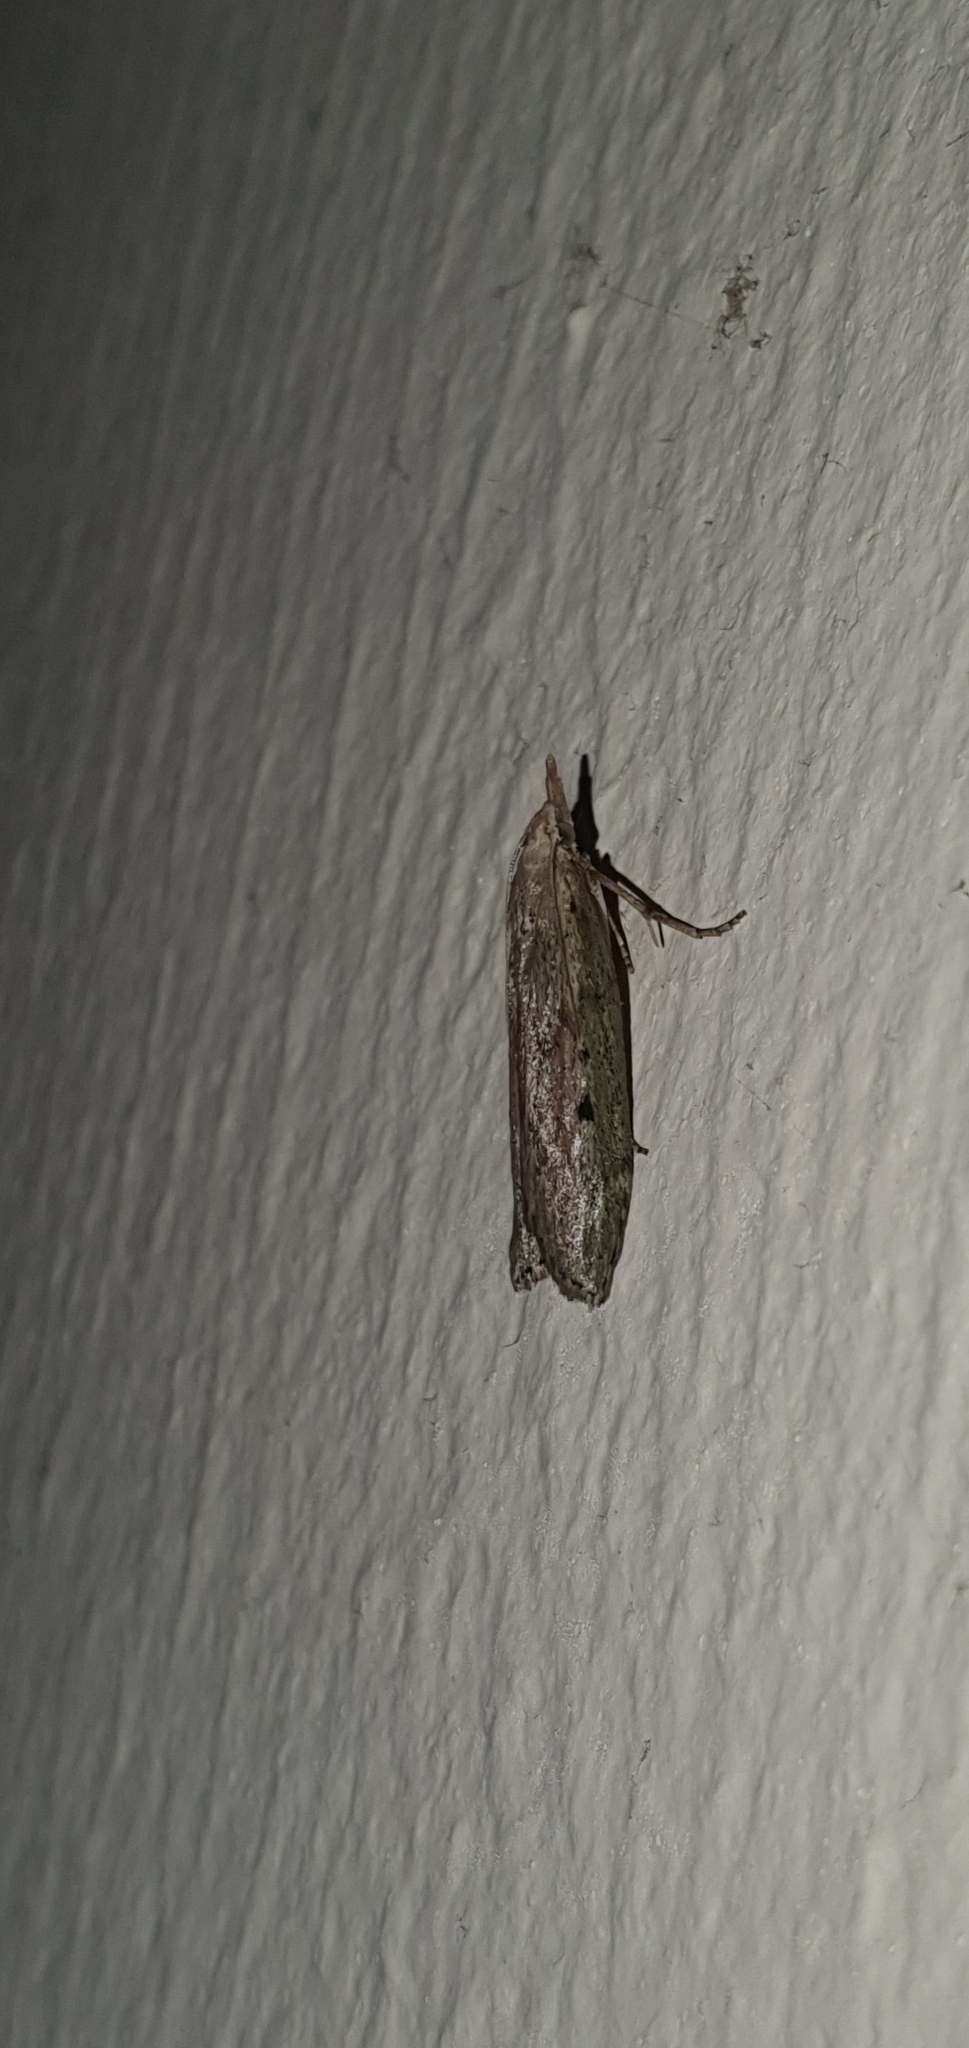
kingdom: Animalia
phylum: Arthropoda
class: Insecta
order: Lepidoptera
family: Pyralidae
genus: Aphomia
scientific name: Aphomia sociella
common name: Bee moth
